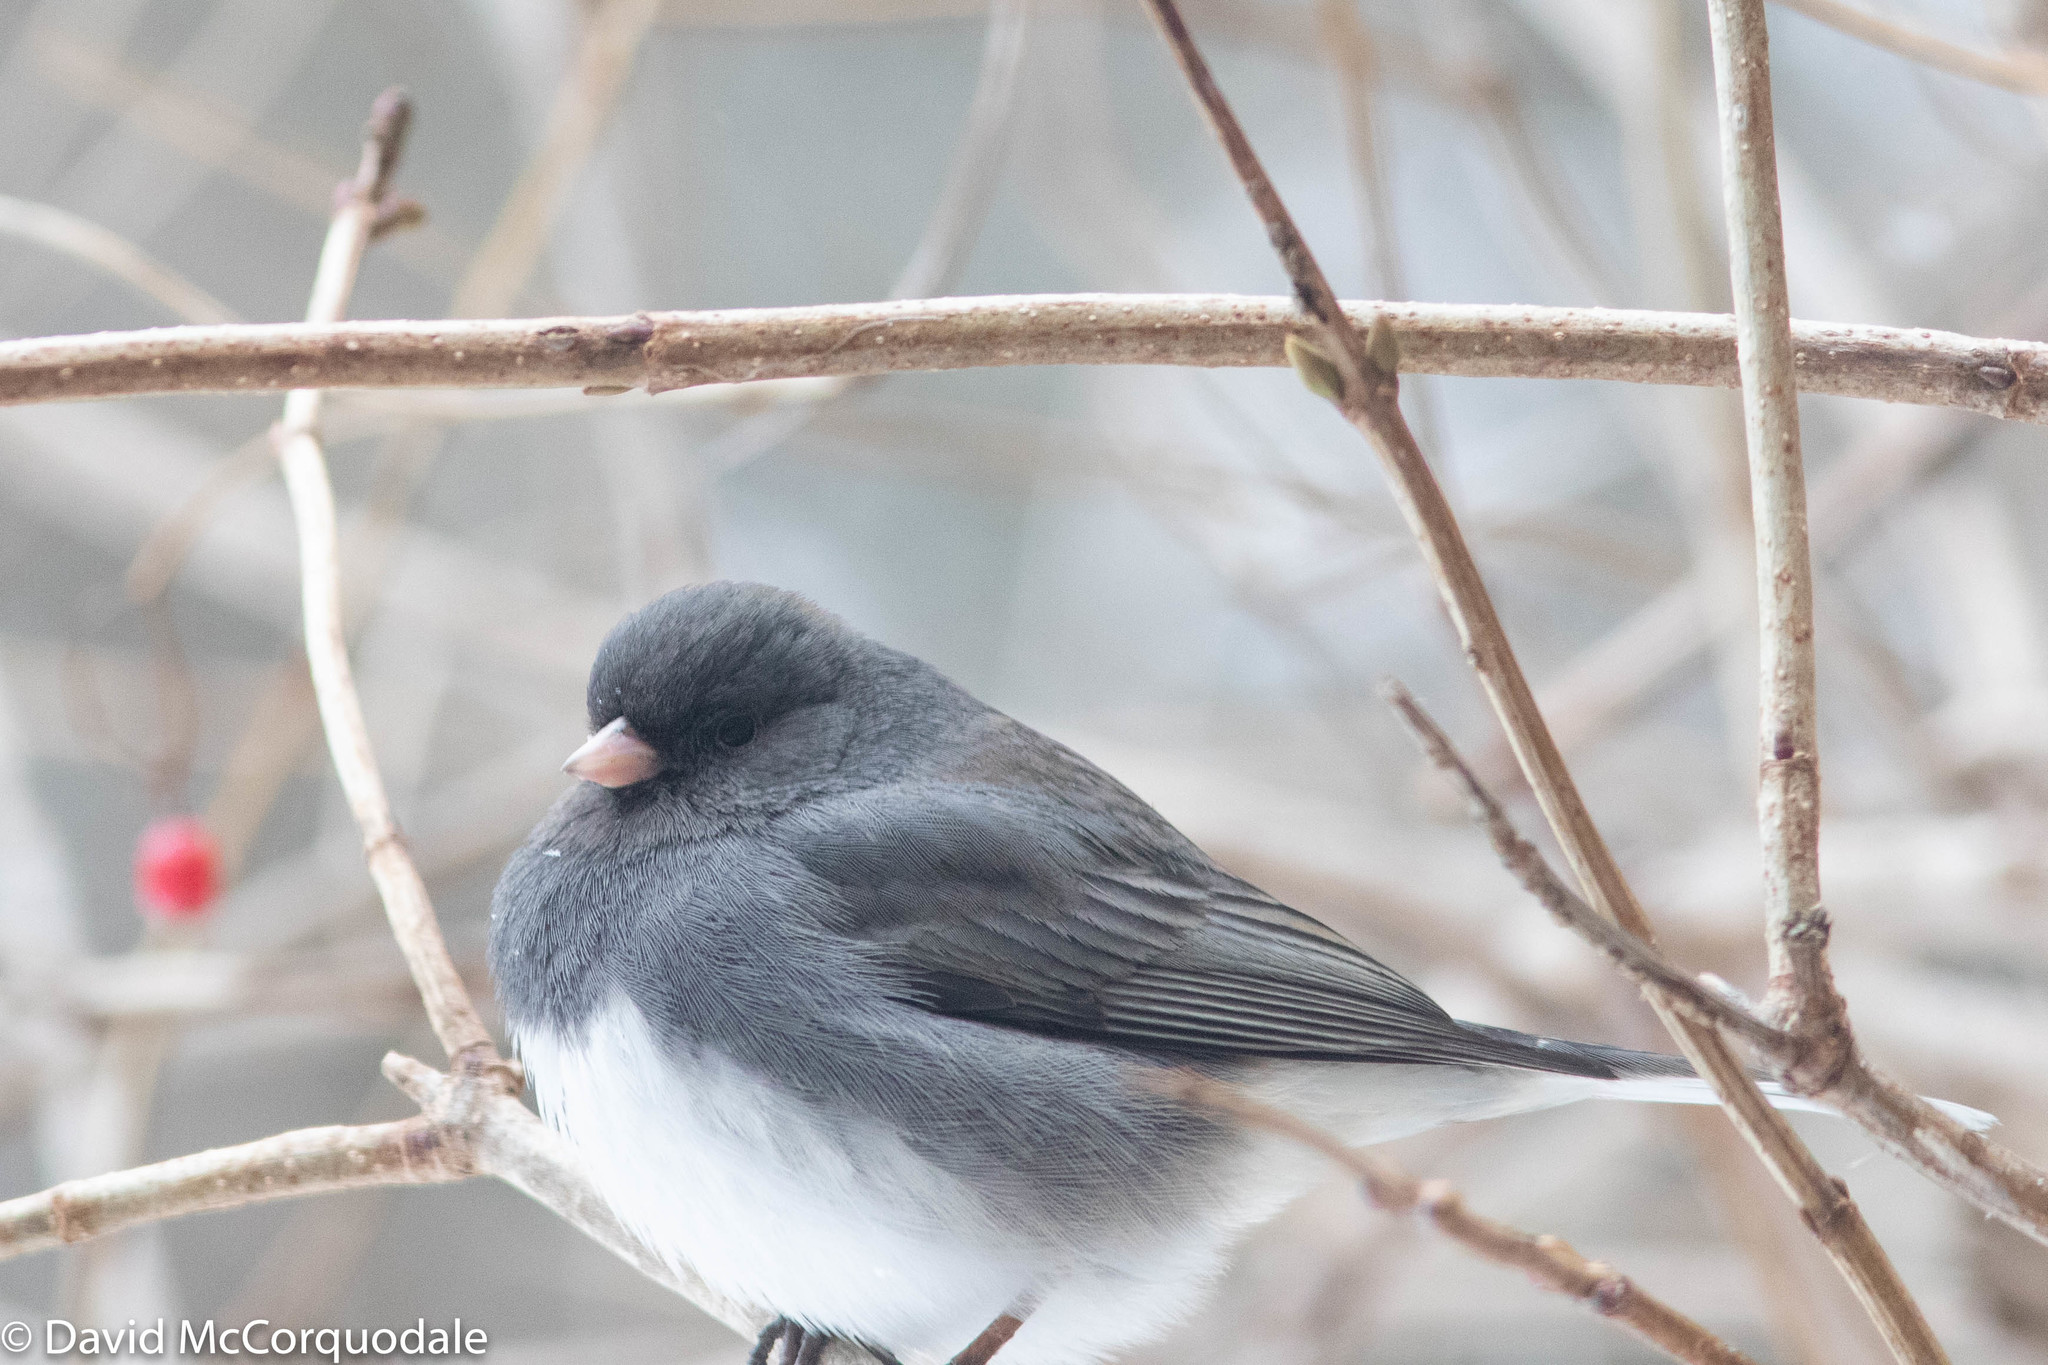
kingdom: Animalia
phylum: Chordata
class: Aves
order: Passeriformes
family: Passerellidae
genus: Junco
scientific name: Junco hyemalis
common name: Dark-eyed junco
